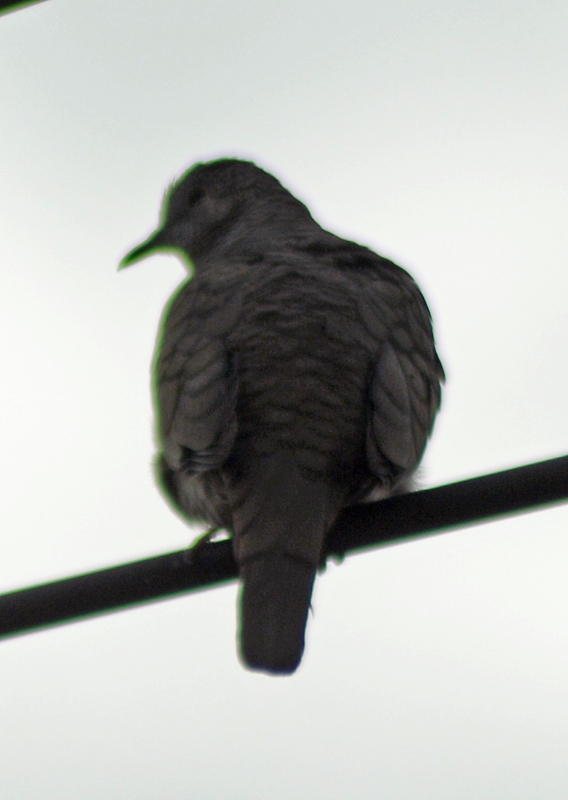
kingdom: Animalia
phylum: Chordata
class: Aves
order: Columbiformes
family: Columbidae
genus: Columbina
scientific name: Columbina inca
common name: Inca dove
